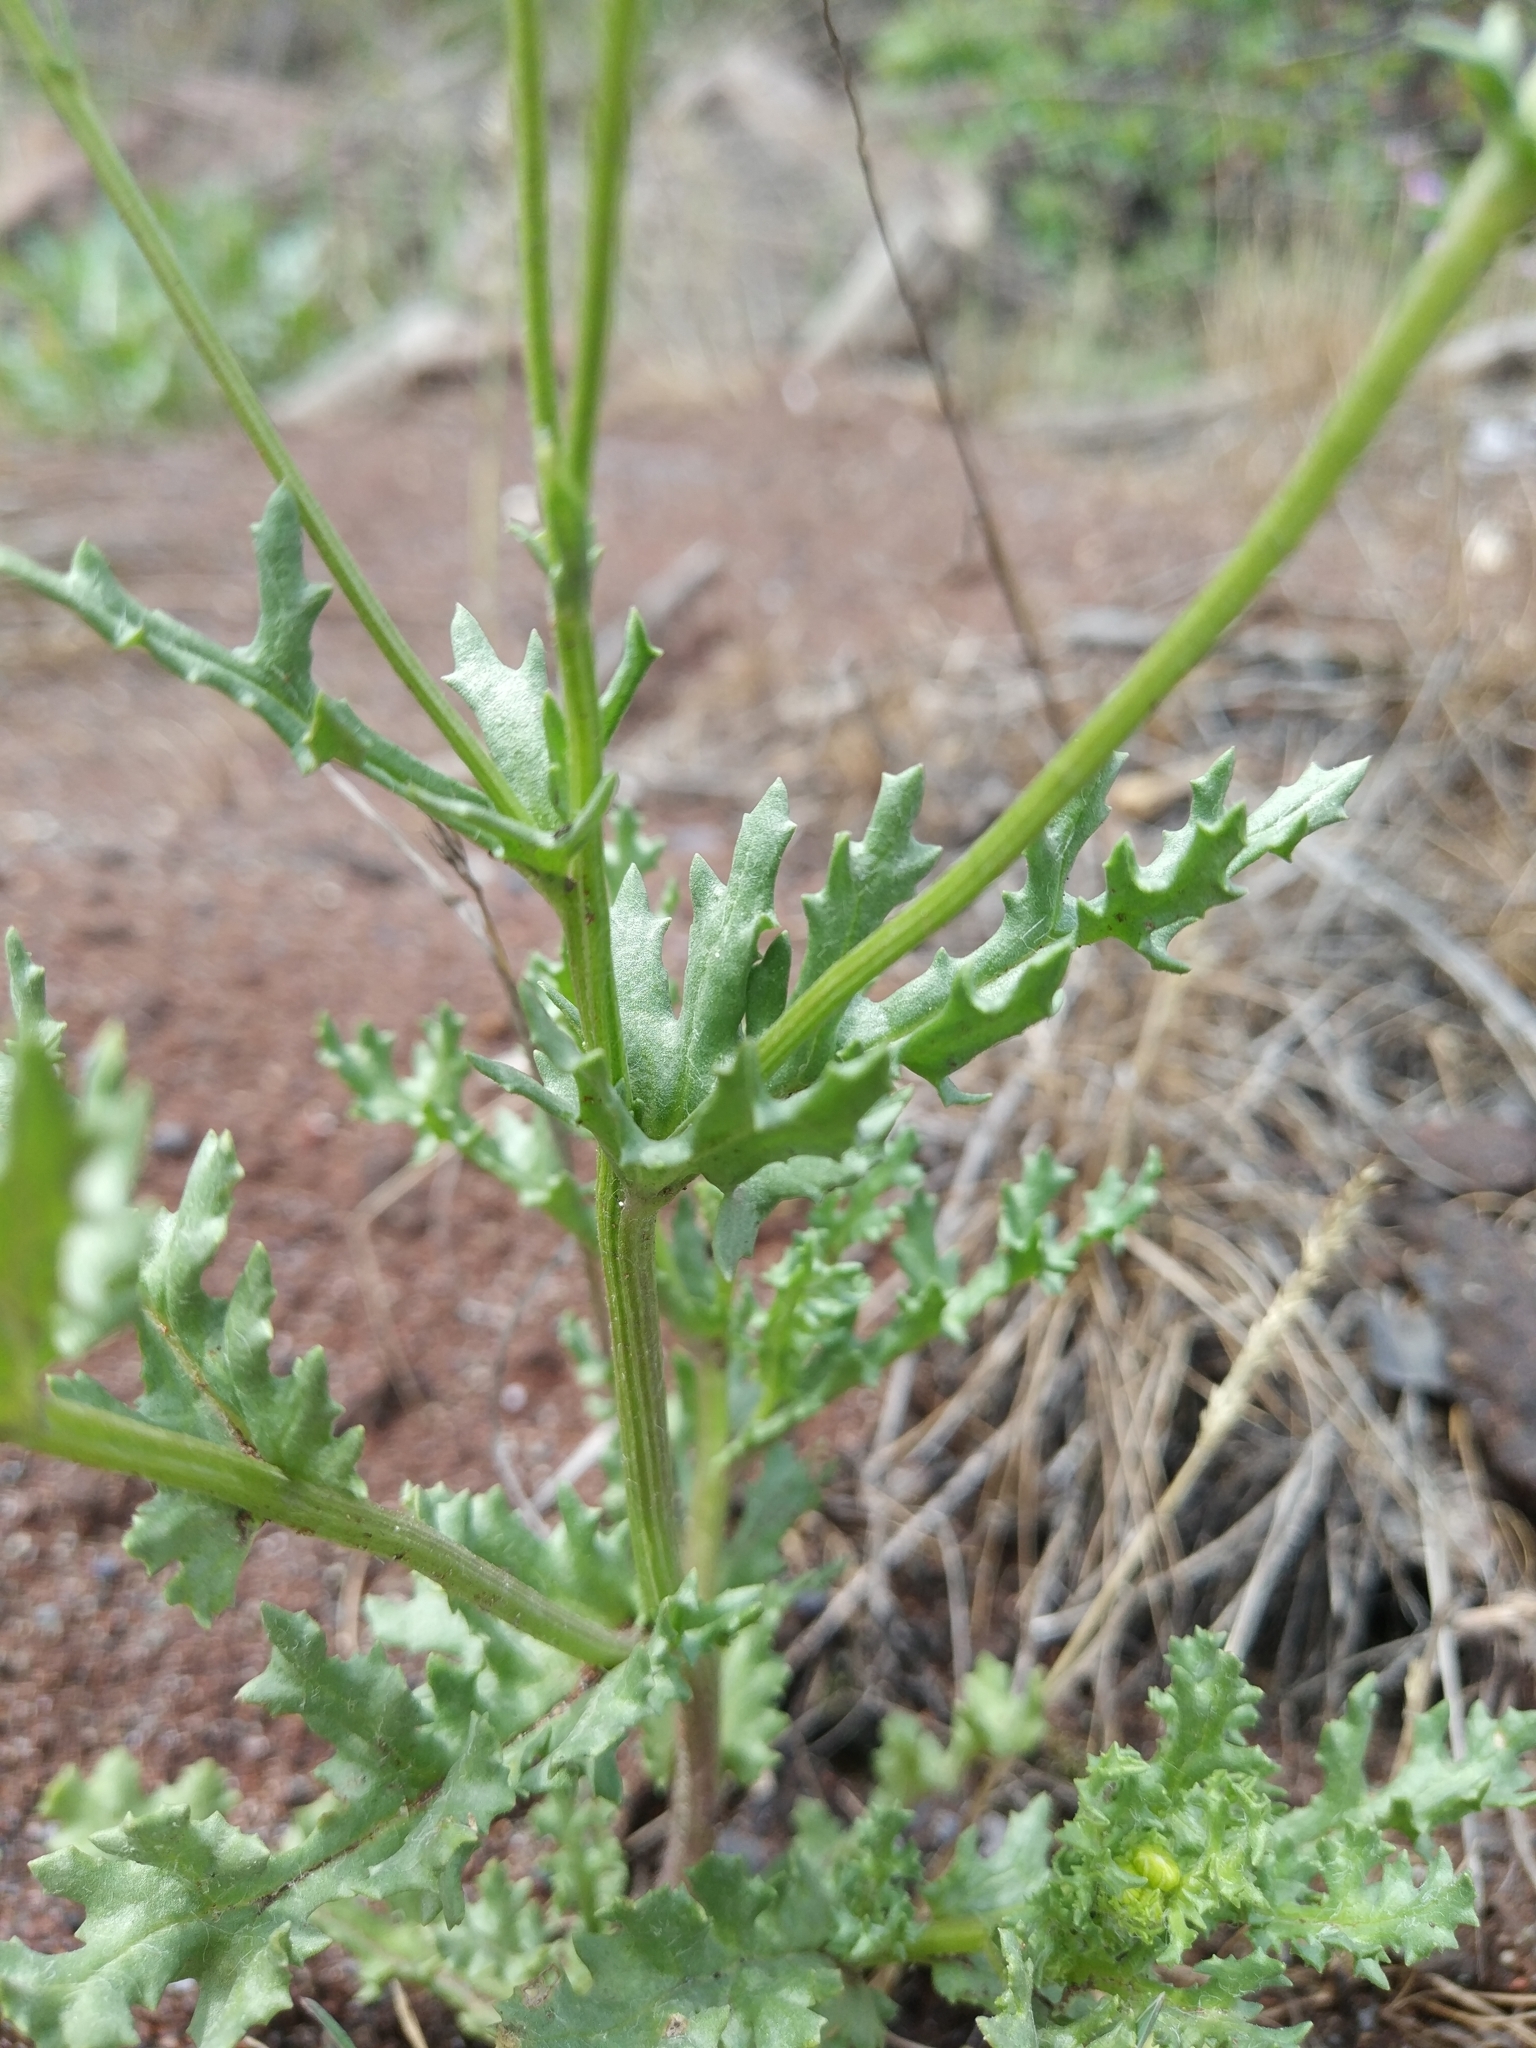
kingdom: Plantae
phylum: Tracheophyta
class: Magnoliopsida
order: Asterales
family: Asteraceae
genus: Senecio
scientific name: Senecio vernalis
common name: Eastern groundsel
